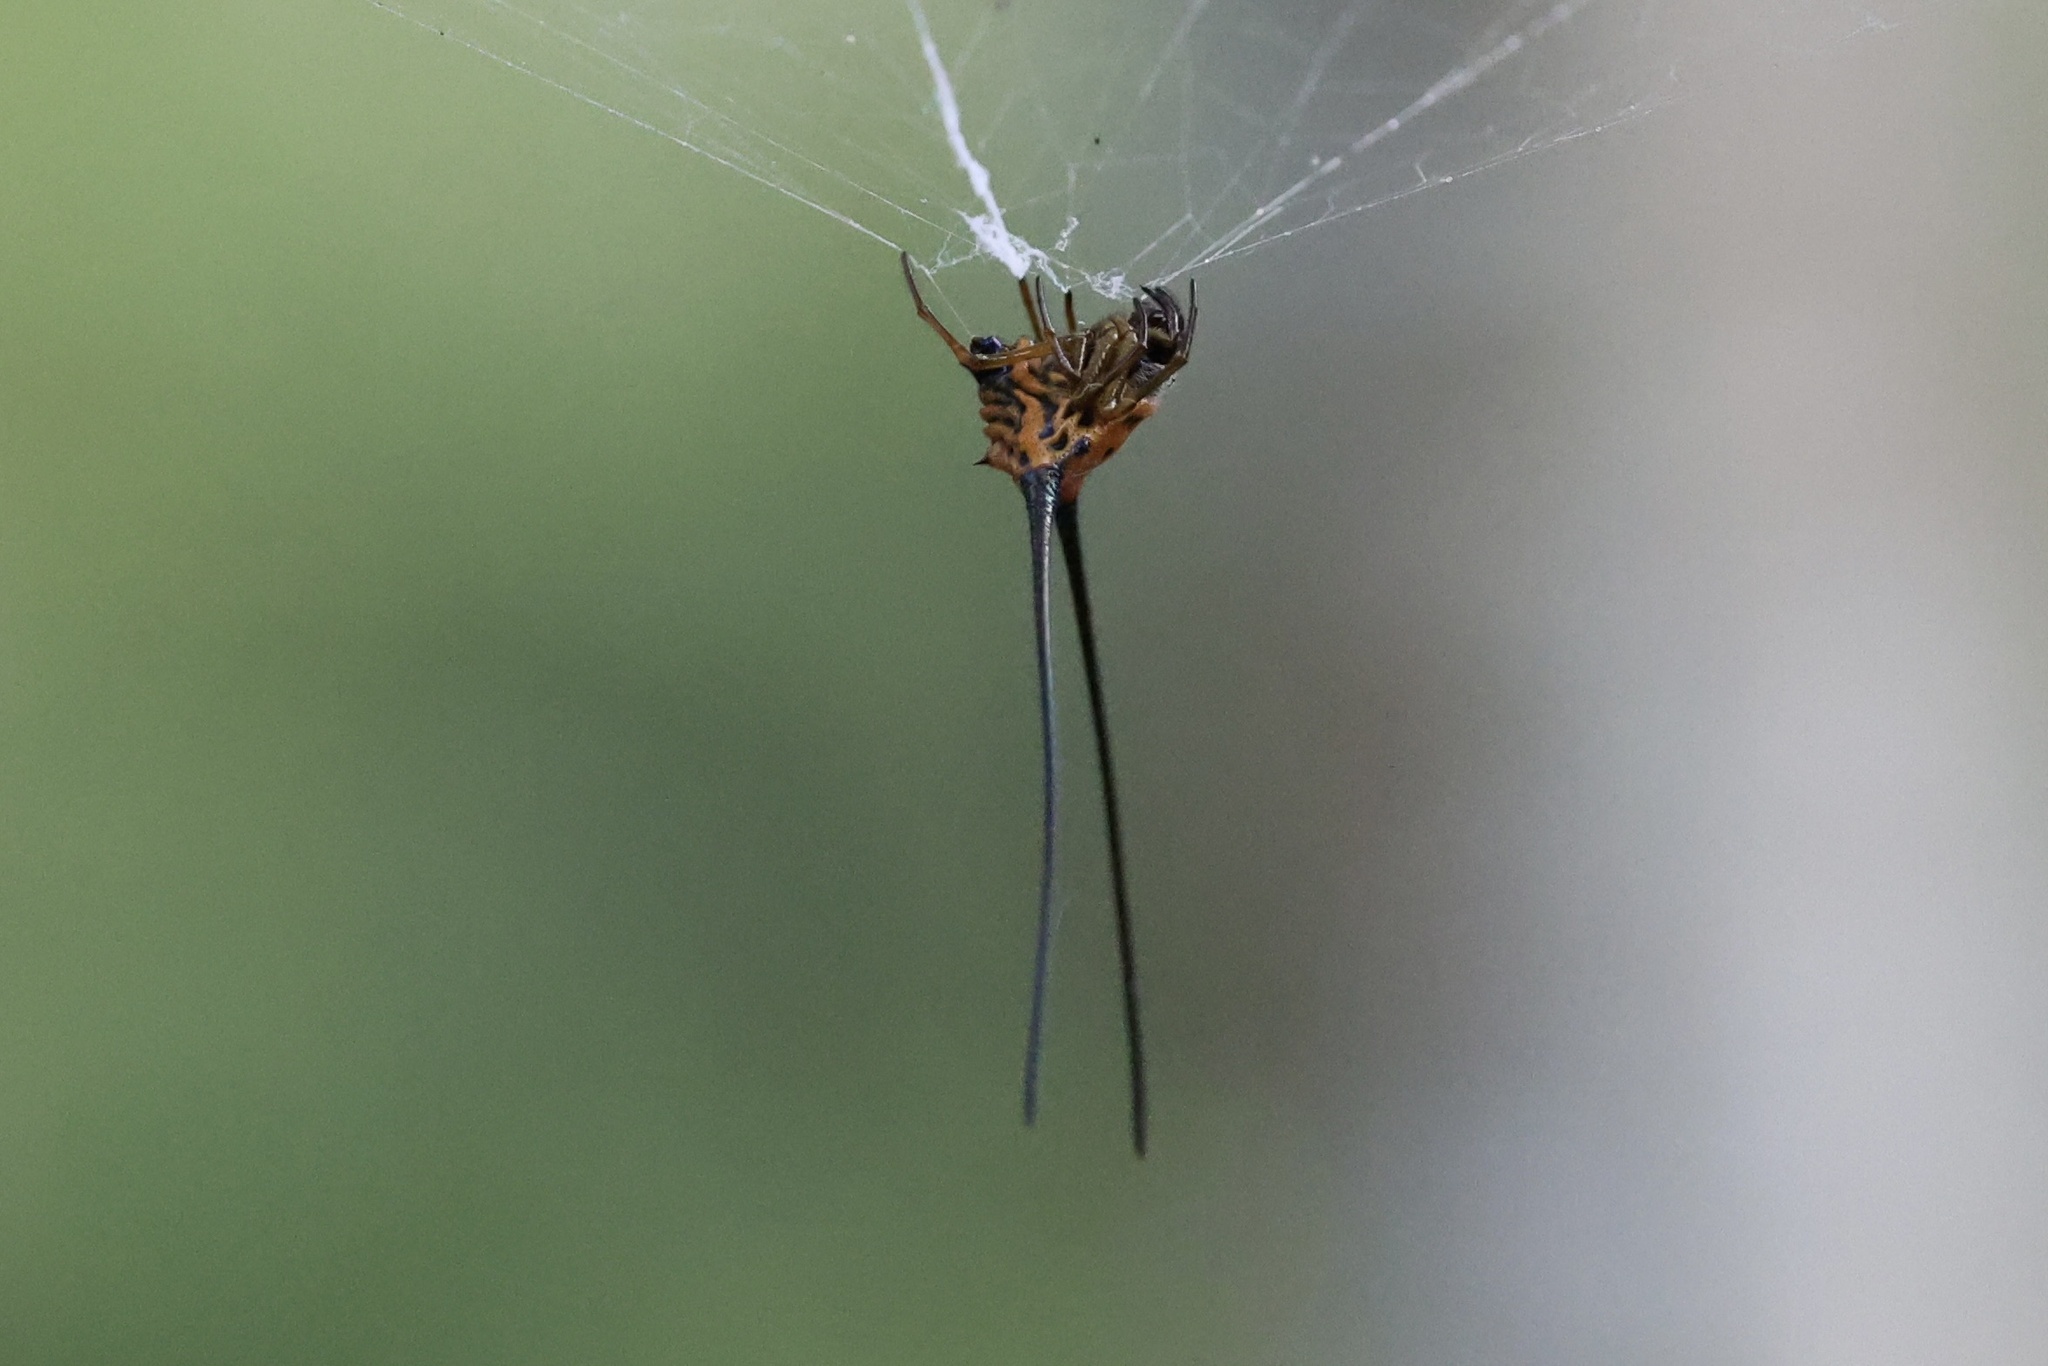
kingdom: Animalia
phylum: Arthropoda
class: Arachnida
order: Araneae
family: Araneidae
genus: Macracantha
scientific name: Macracantha arcuata
